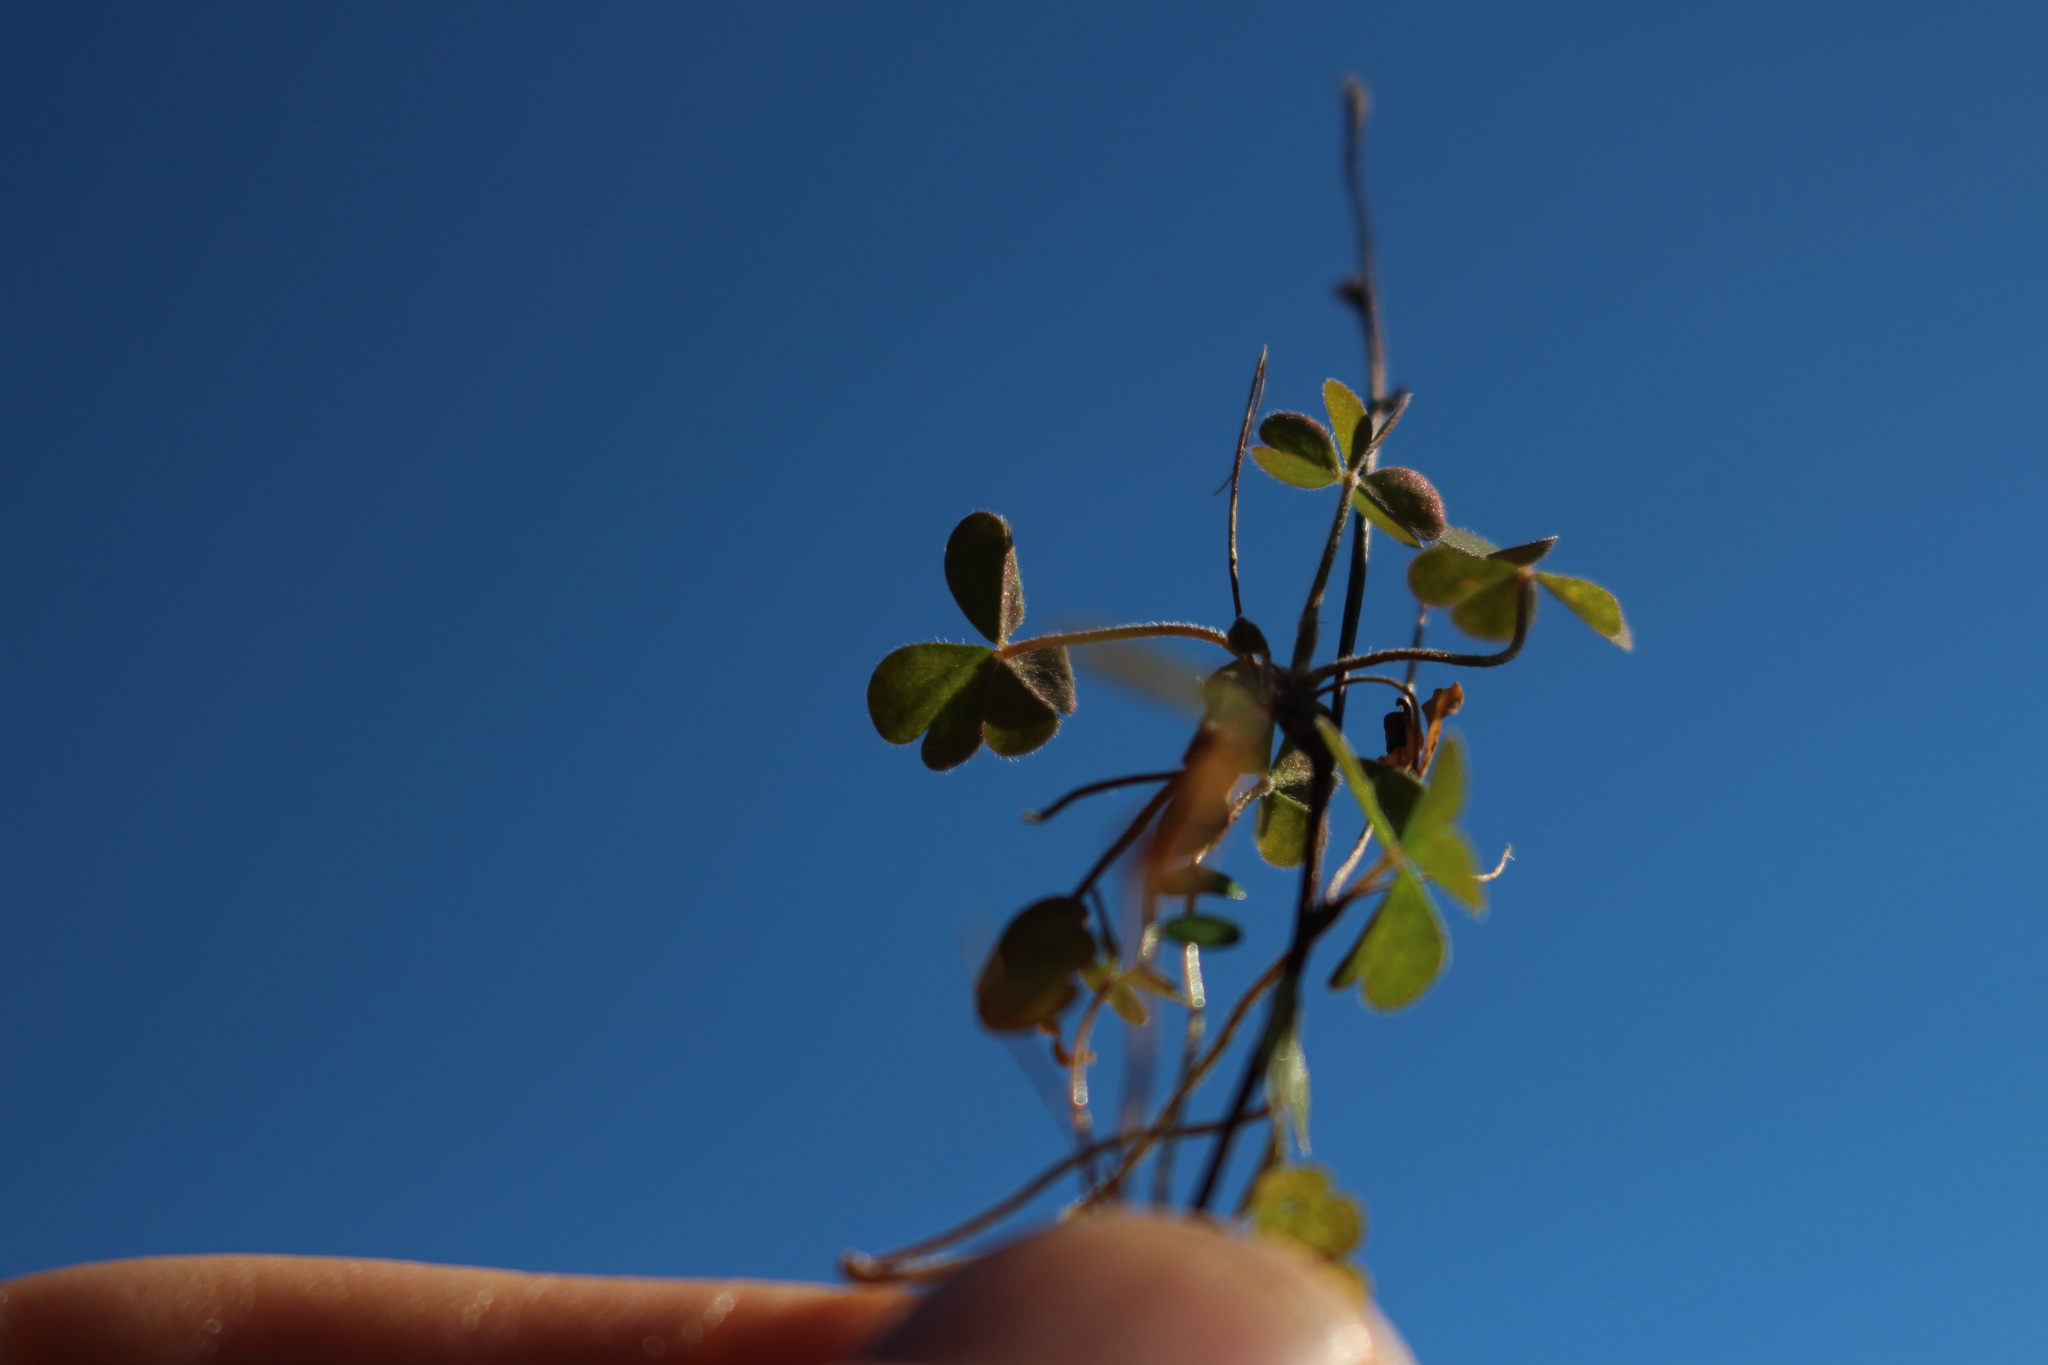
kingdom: Plantae
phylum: Tracheophyta
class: Magnoliopsida
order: Oxalidales
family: Oxalidaceae
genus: Oxalis
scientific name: Oxalis exilis
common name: Least yellow-sorrel
